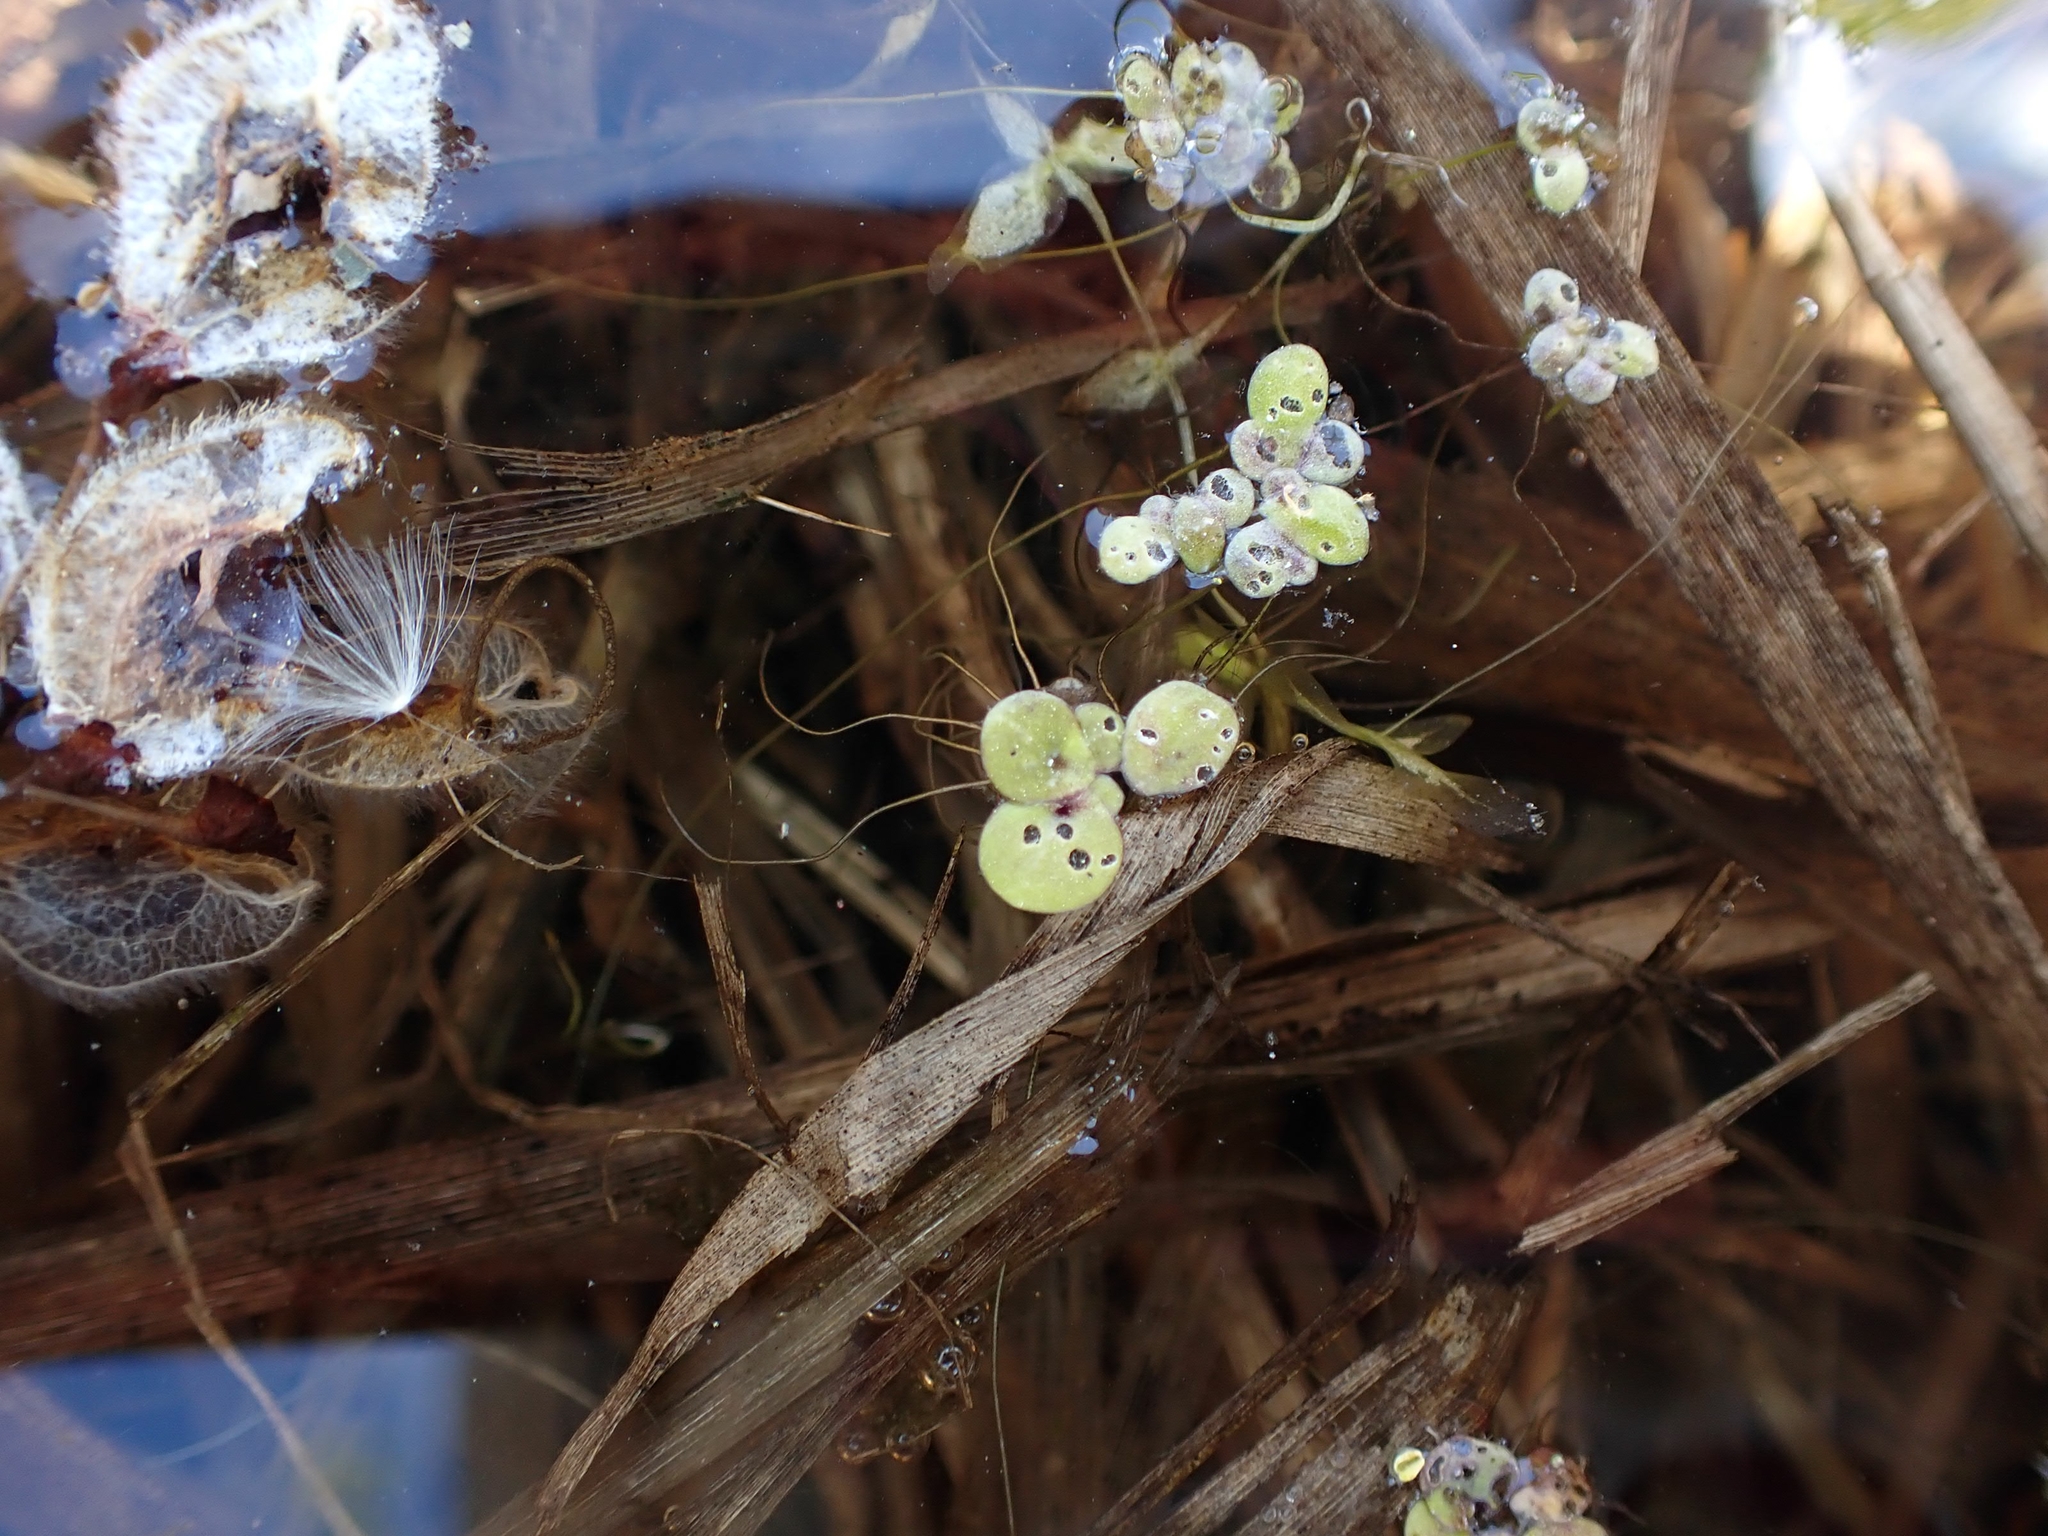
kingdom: Plantae
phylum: Tracheophyta
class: Liliopsida
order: Alismatales
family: Araceae
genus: Spirodela
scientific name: Spirodela polyrhiza
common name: Great duckweed
